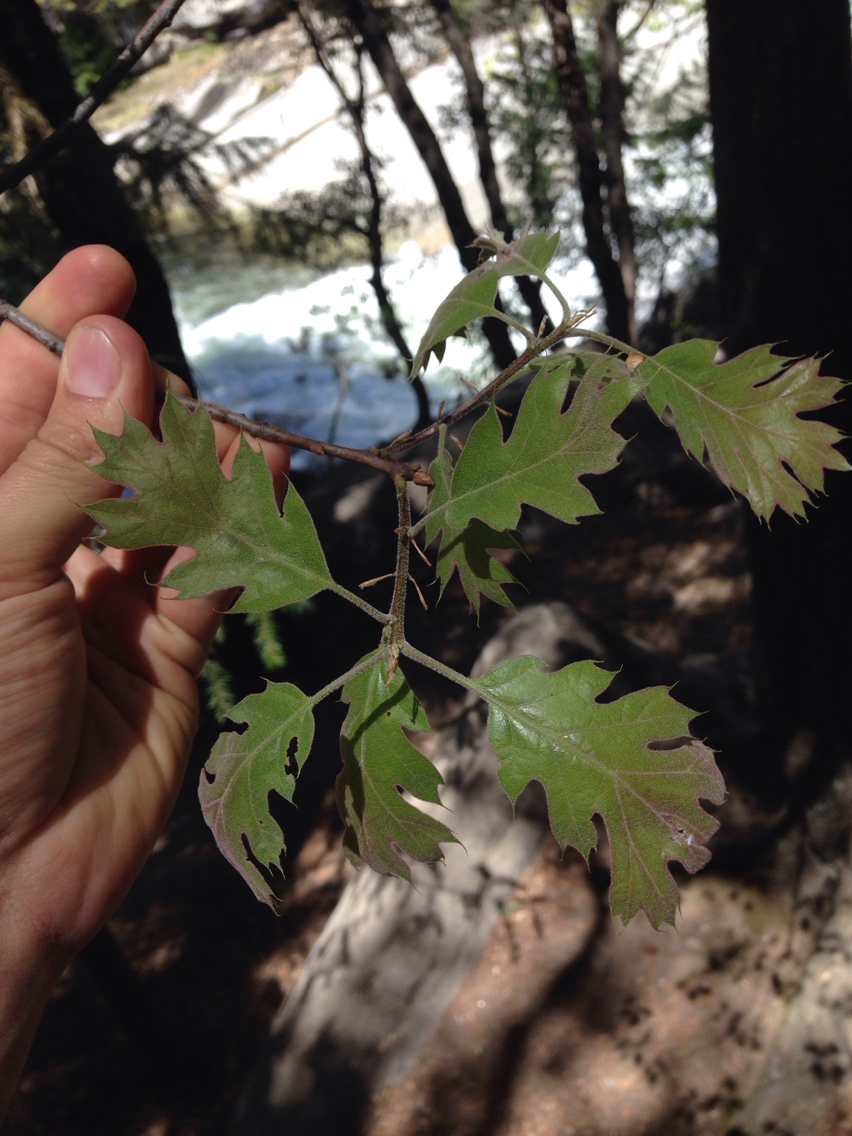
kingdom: Plantae
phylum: Tracheophyta
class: Magnoliopsida
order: Fagales
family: Fagaceae
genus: Quercus
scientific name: Quercus kelloggii
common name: California black oak
